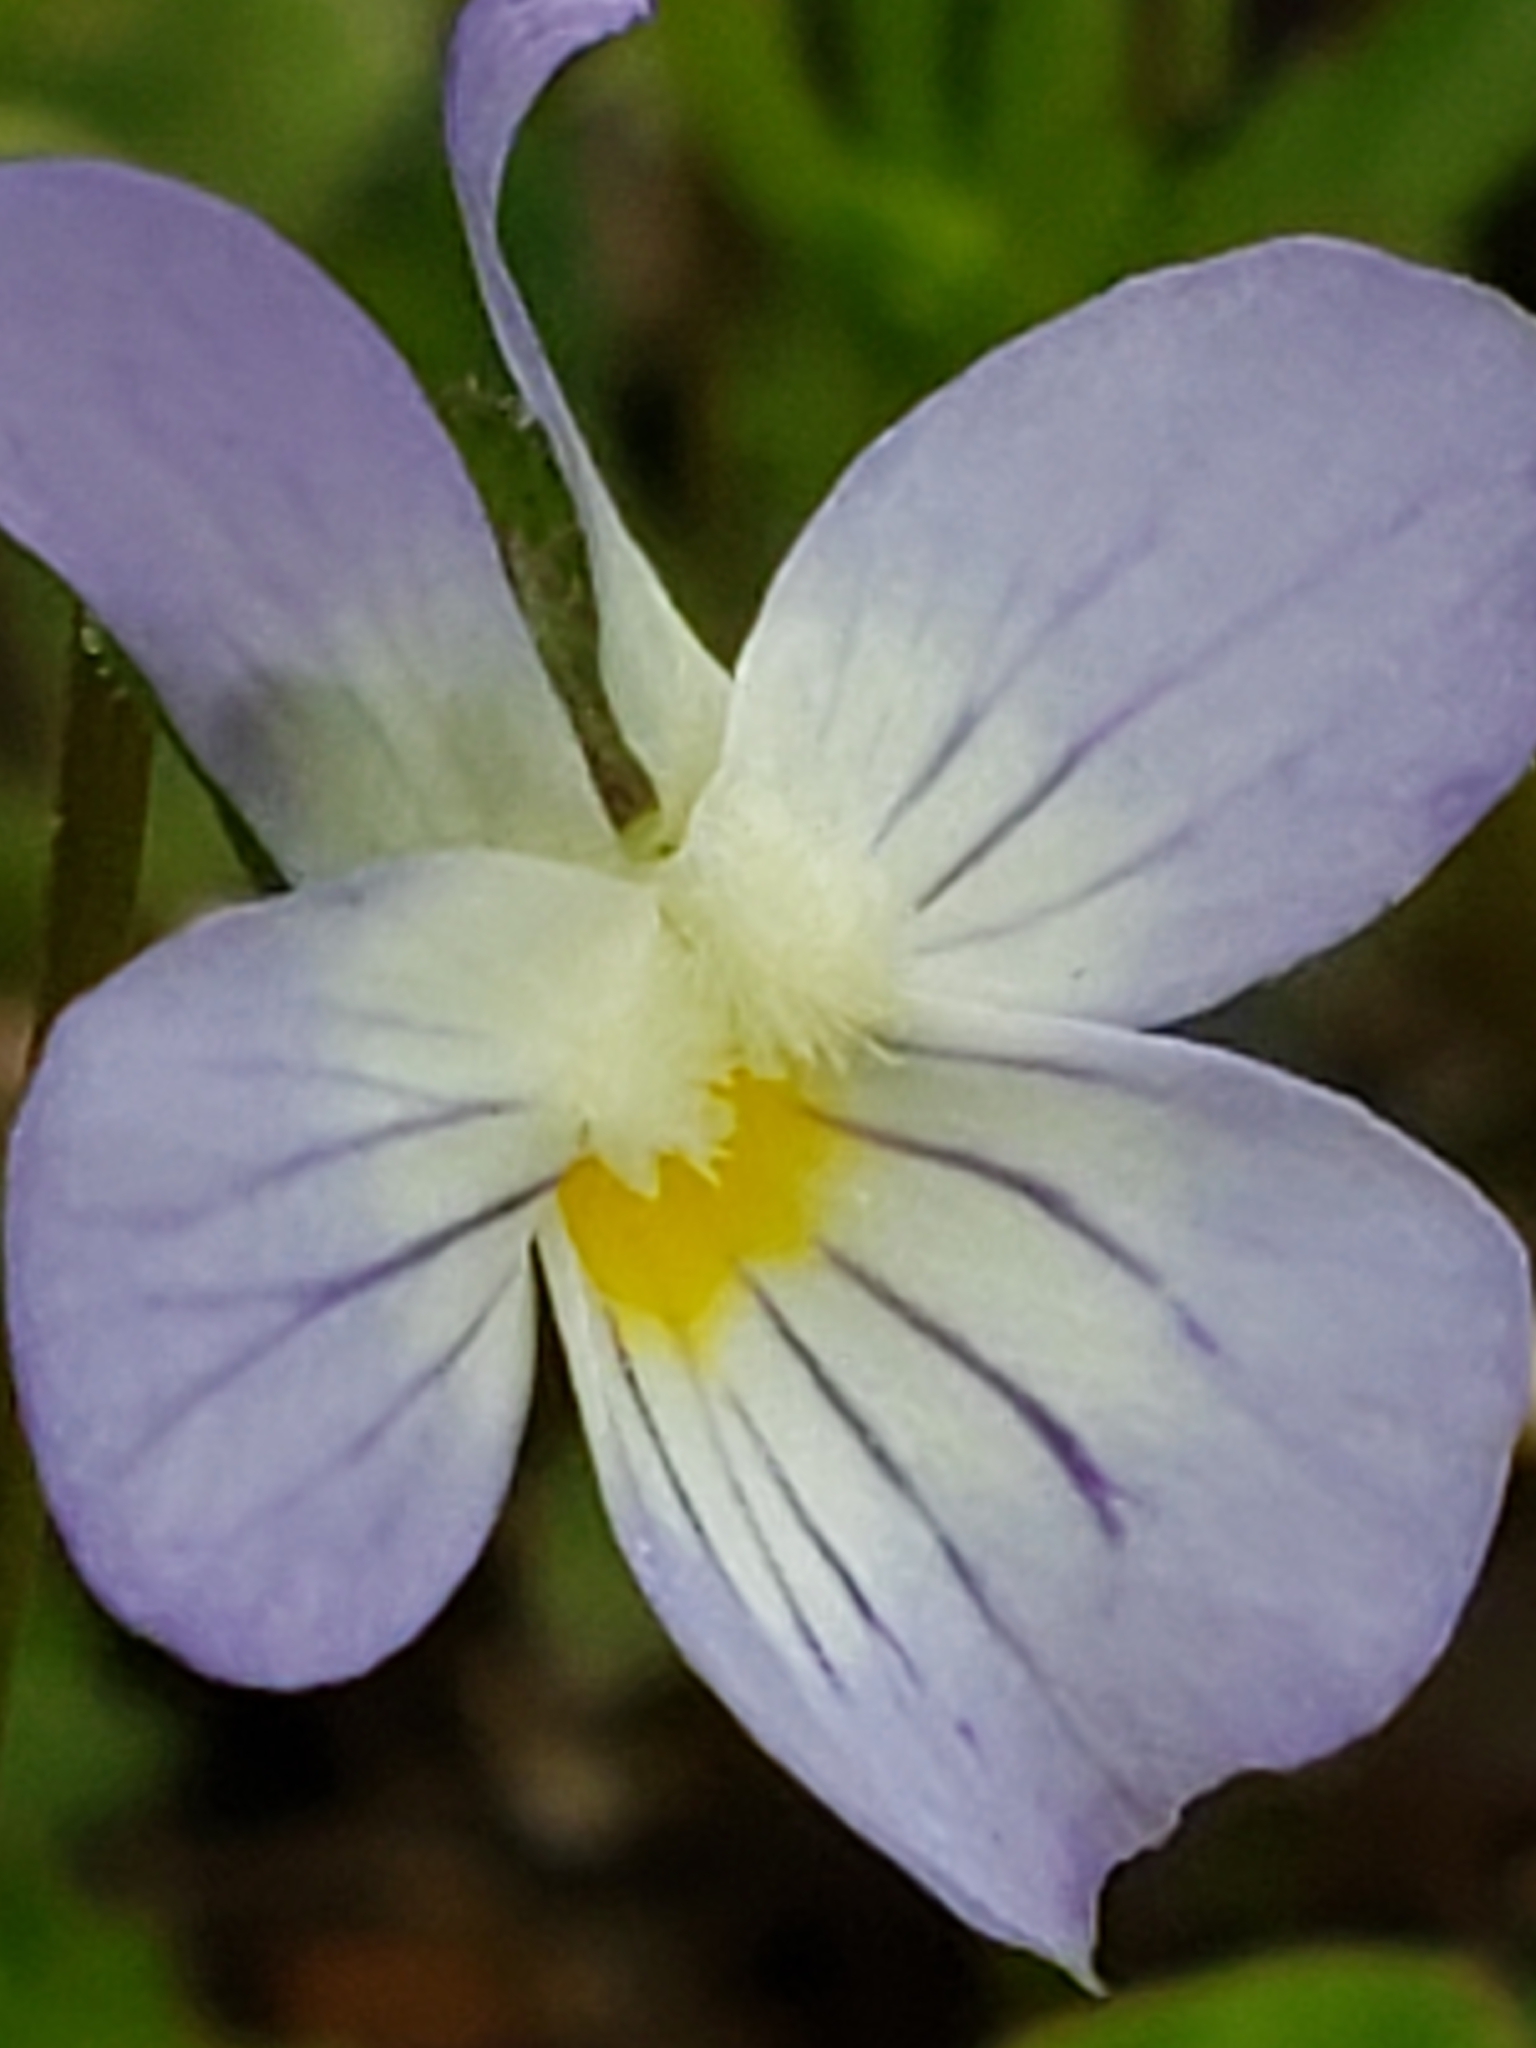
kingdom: Plantae
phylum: Tracheophyta
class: Magnoliopsida
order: Malpighiales
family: Violaceae
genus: Viola
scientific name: Viola rafinesquei
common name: American field pansy
